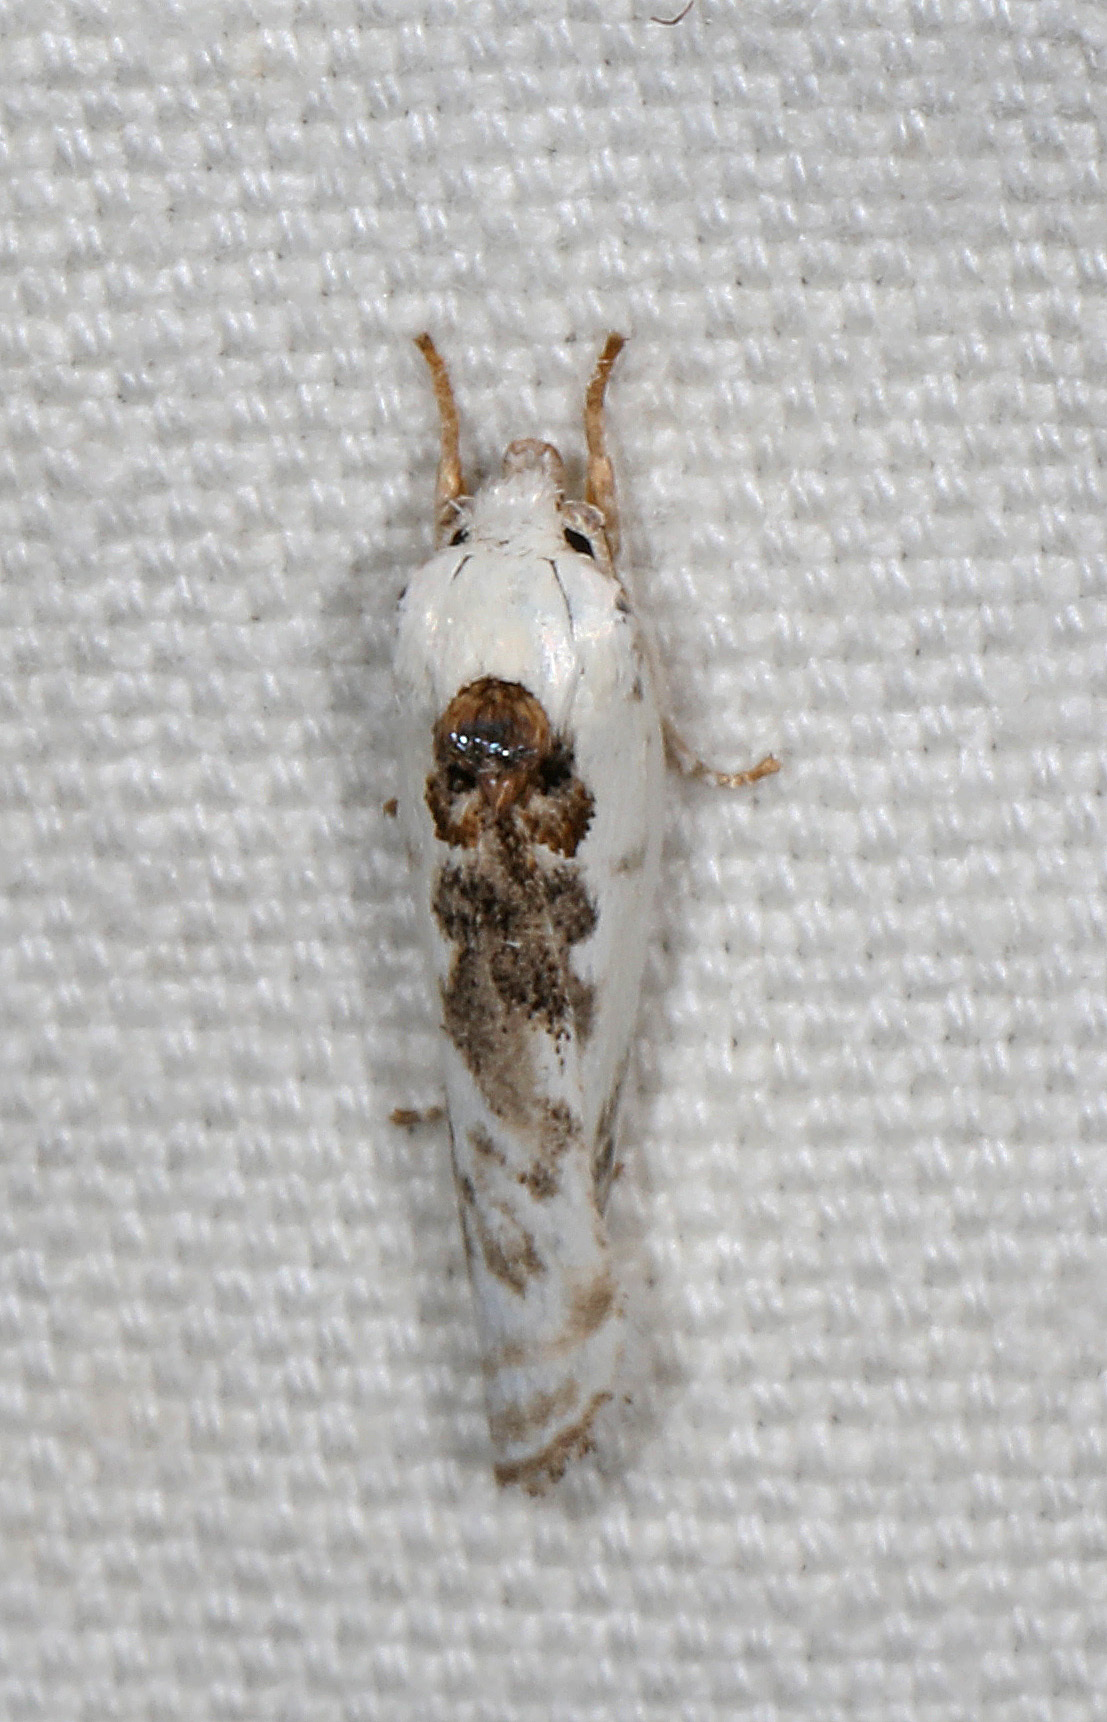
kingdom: Animalia
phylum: Arthropoda
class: Insecta
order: Lepidoptera
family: Depressariidae
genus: Antaeotricha
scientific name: Antaeotricha leucillana
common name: Pale gray bird-dropping moth
